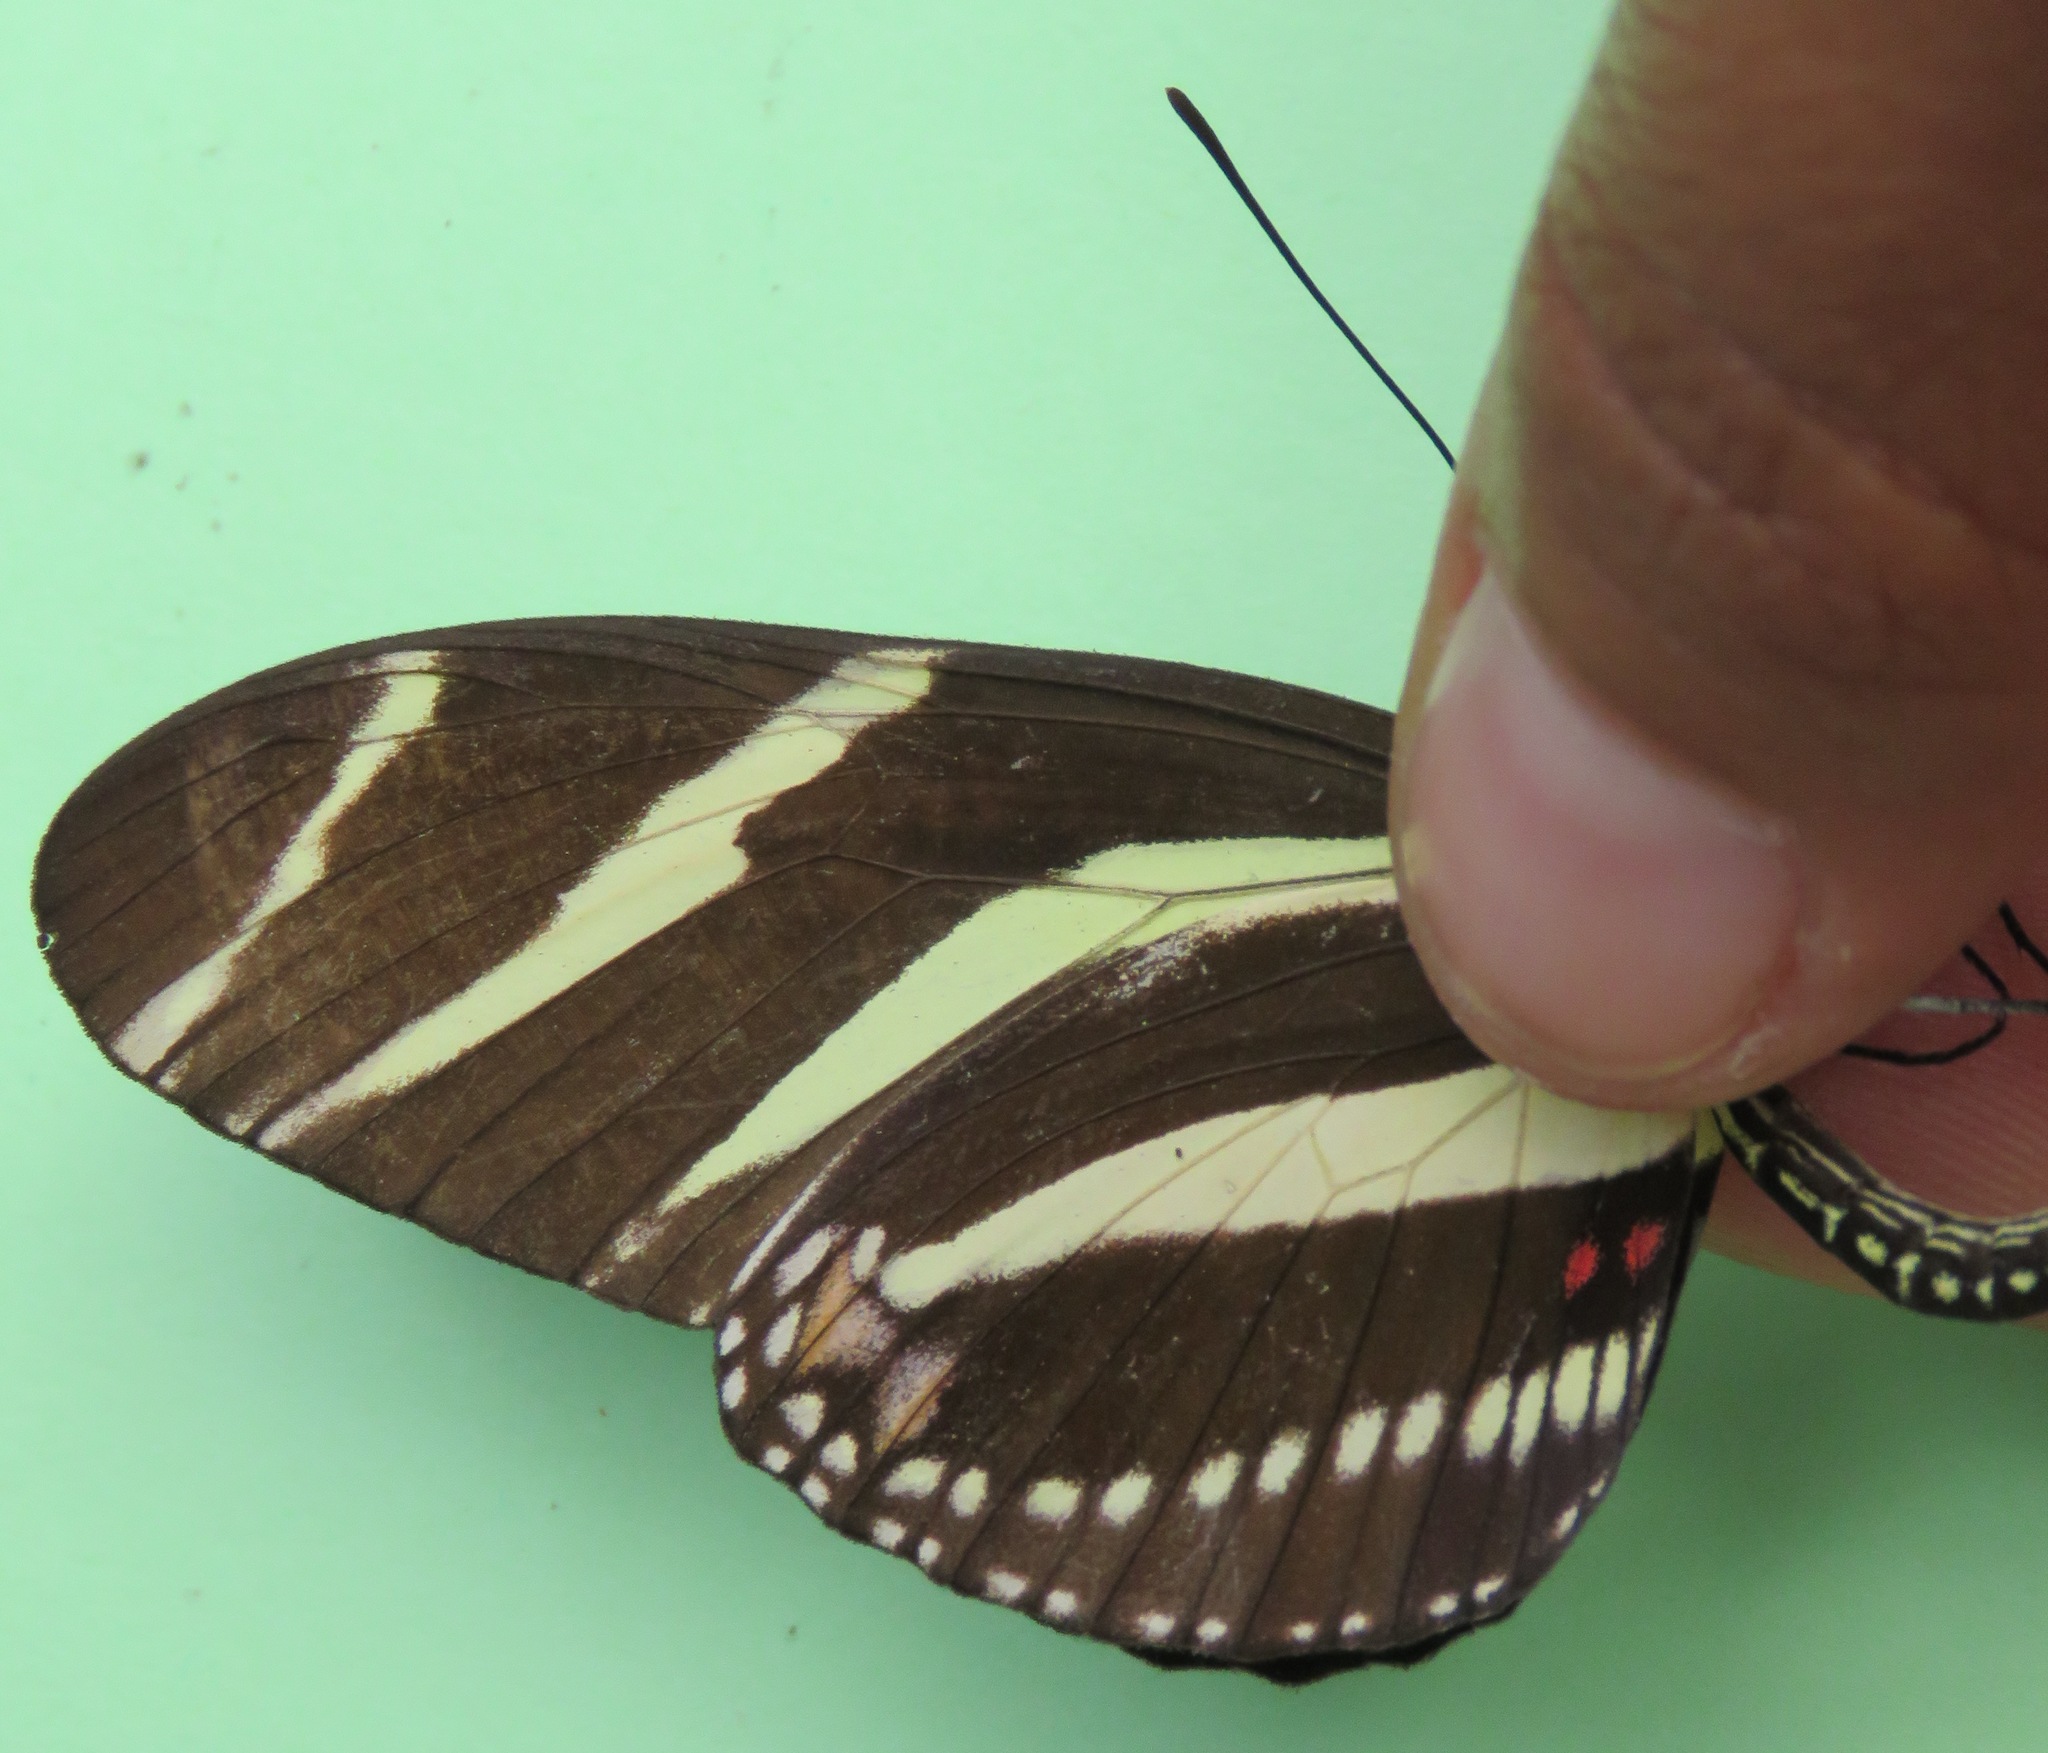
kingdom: Animalia
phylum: Arthropoda
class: Insecta
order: Lepidoptera
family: Nymphalidae
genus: Heliconius
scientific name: Heliconius charithonia
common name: Zebra long wing
